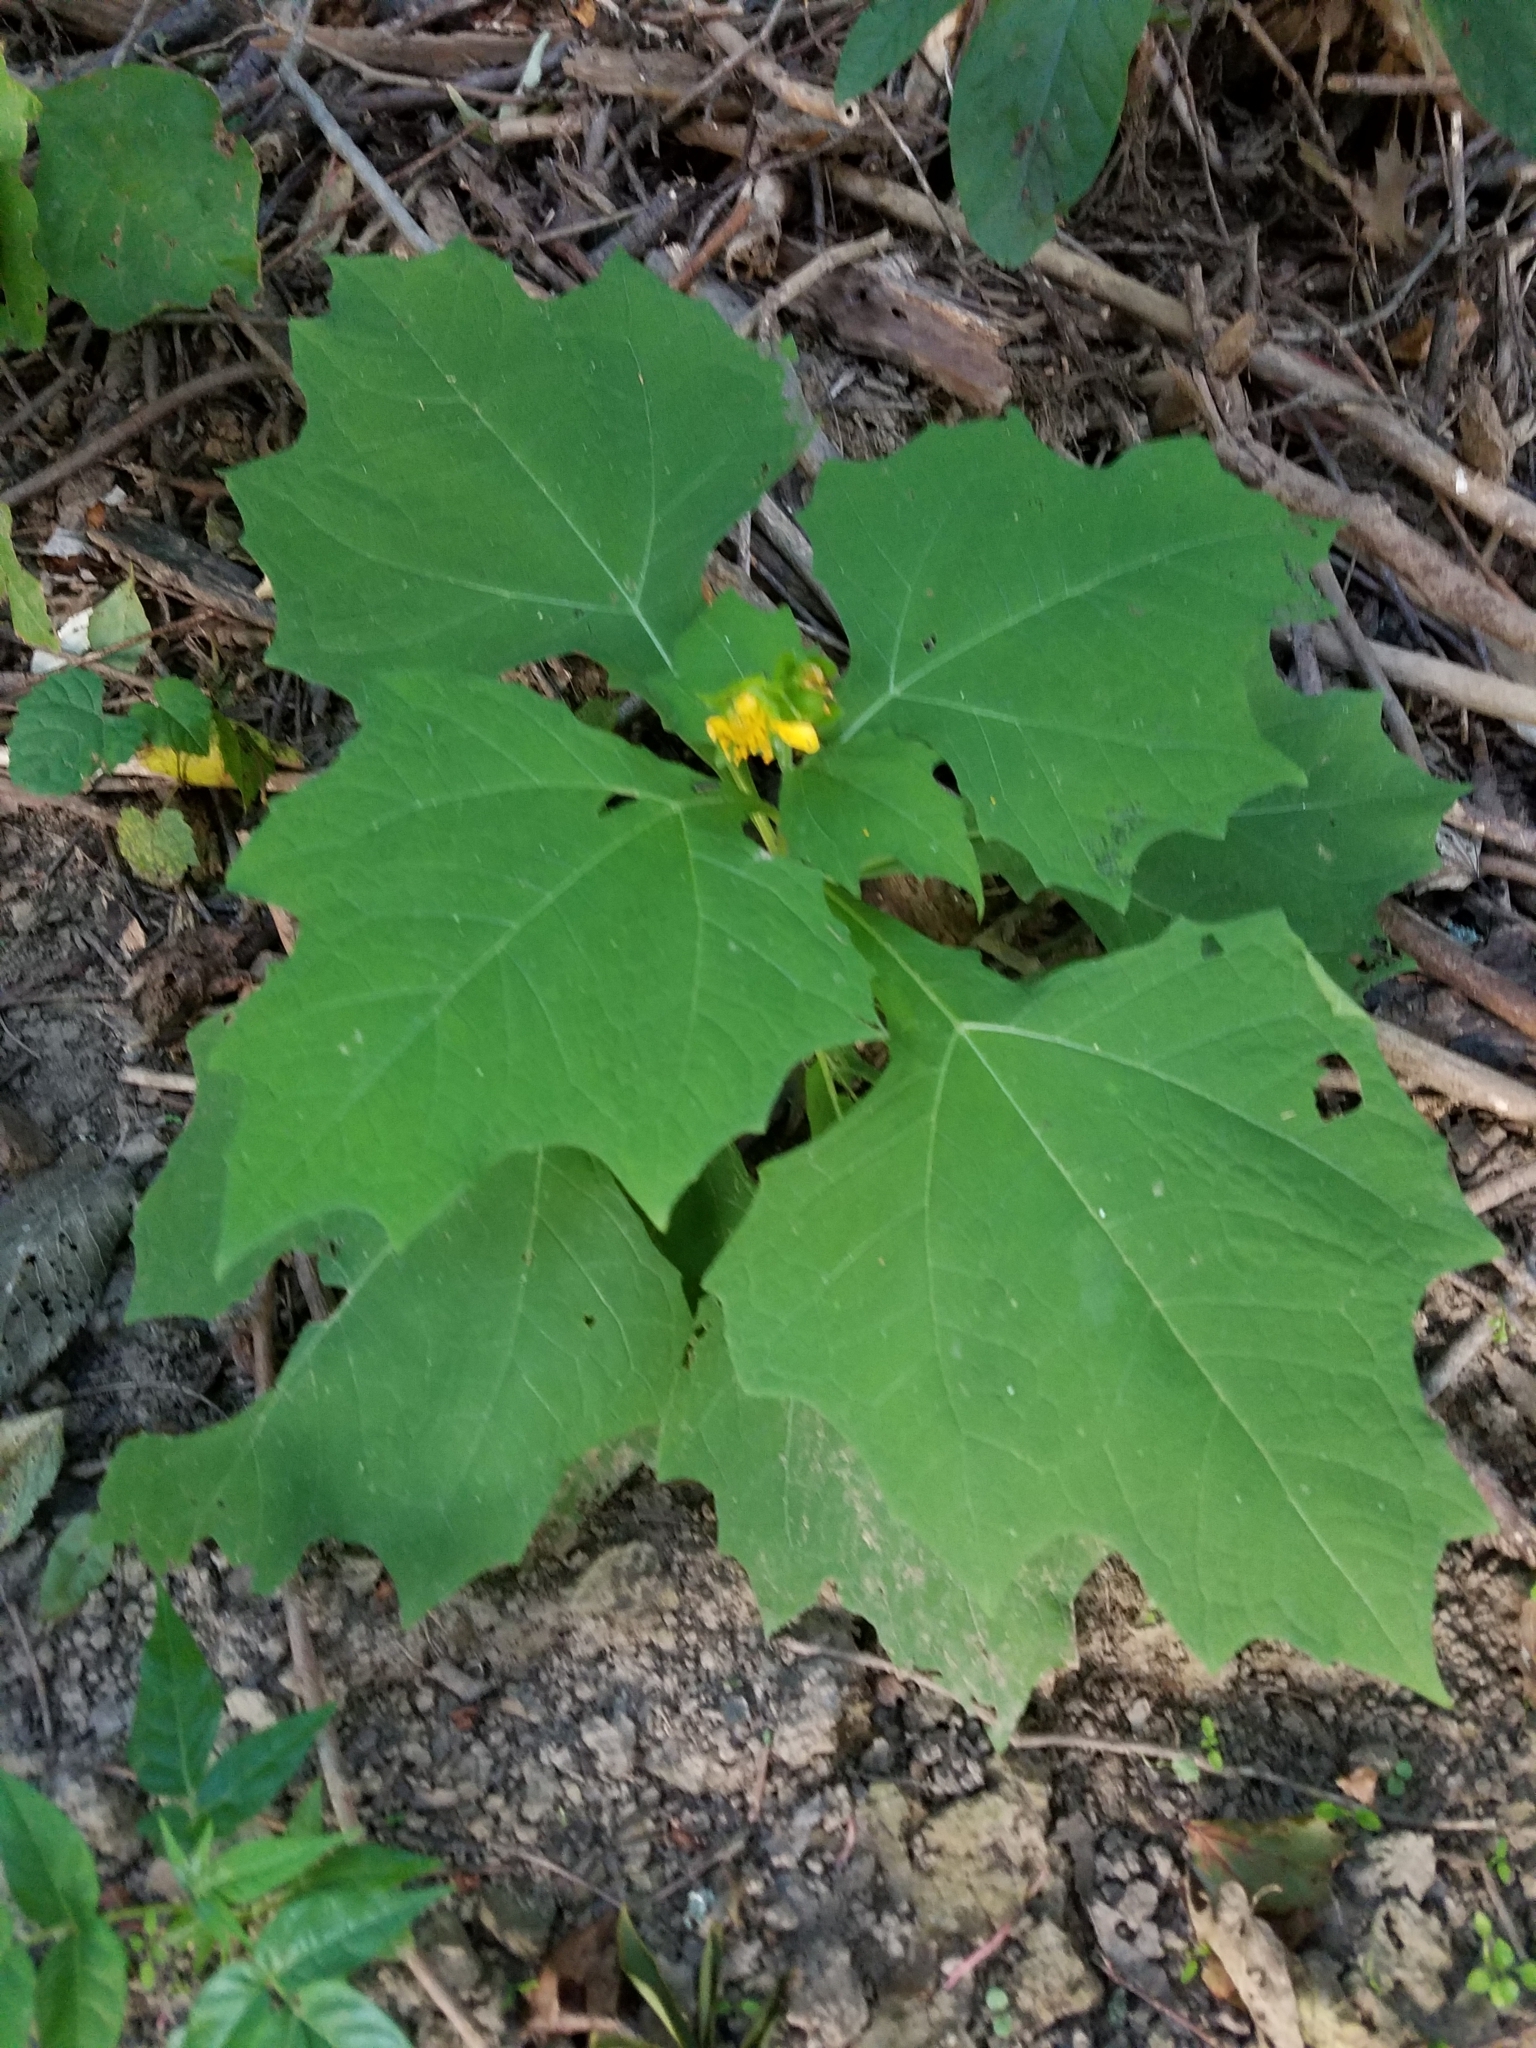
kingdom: Plantae
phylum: Tracheophyta
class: Magnoliopsida
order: Asterales
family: Asteraceae
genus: Smallanthus
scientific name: Smallanthus uvedalia
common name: Bear's-foot
